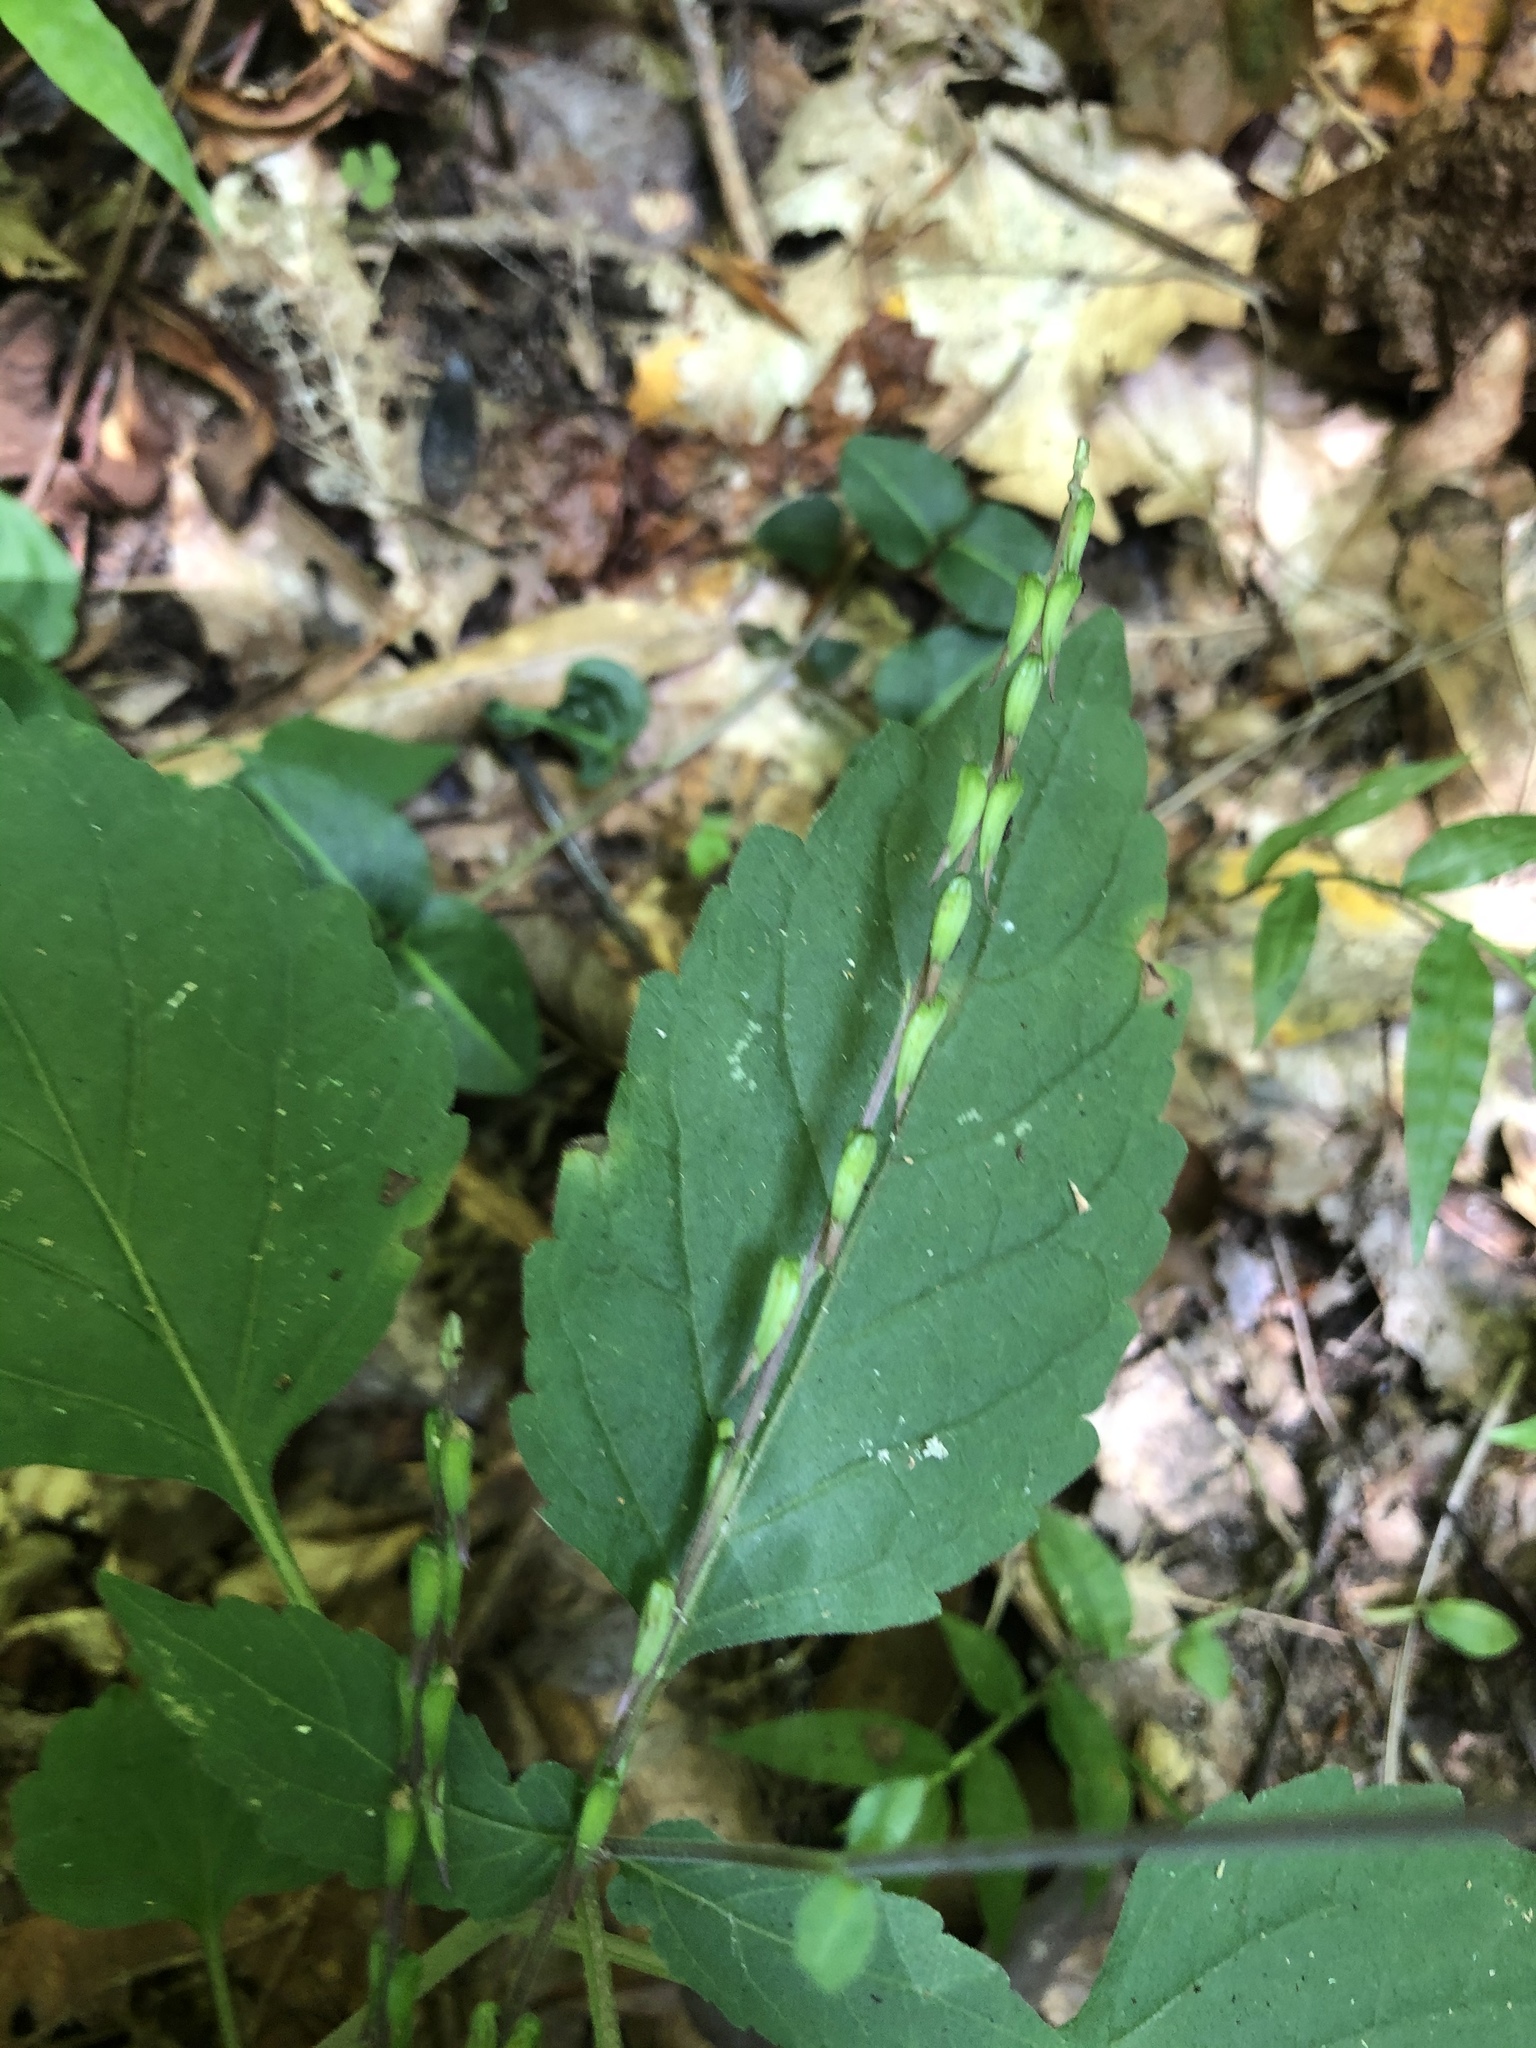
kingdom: Plantae
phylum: Tracheophyta
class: Magnoliopsida
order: Lamiales
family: Phrymaceae
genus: Phryma
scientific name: Phryma leptostachya
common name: American lopseed
